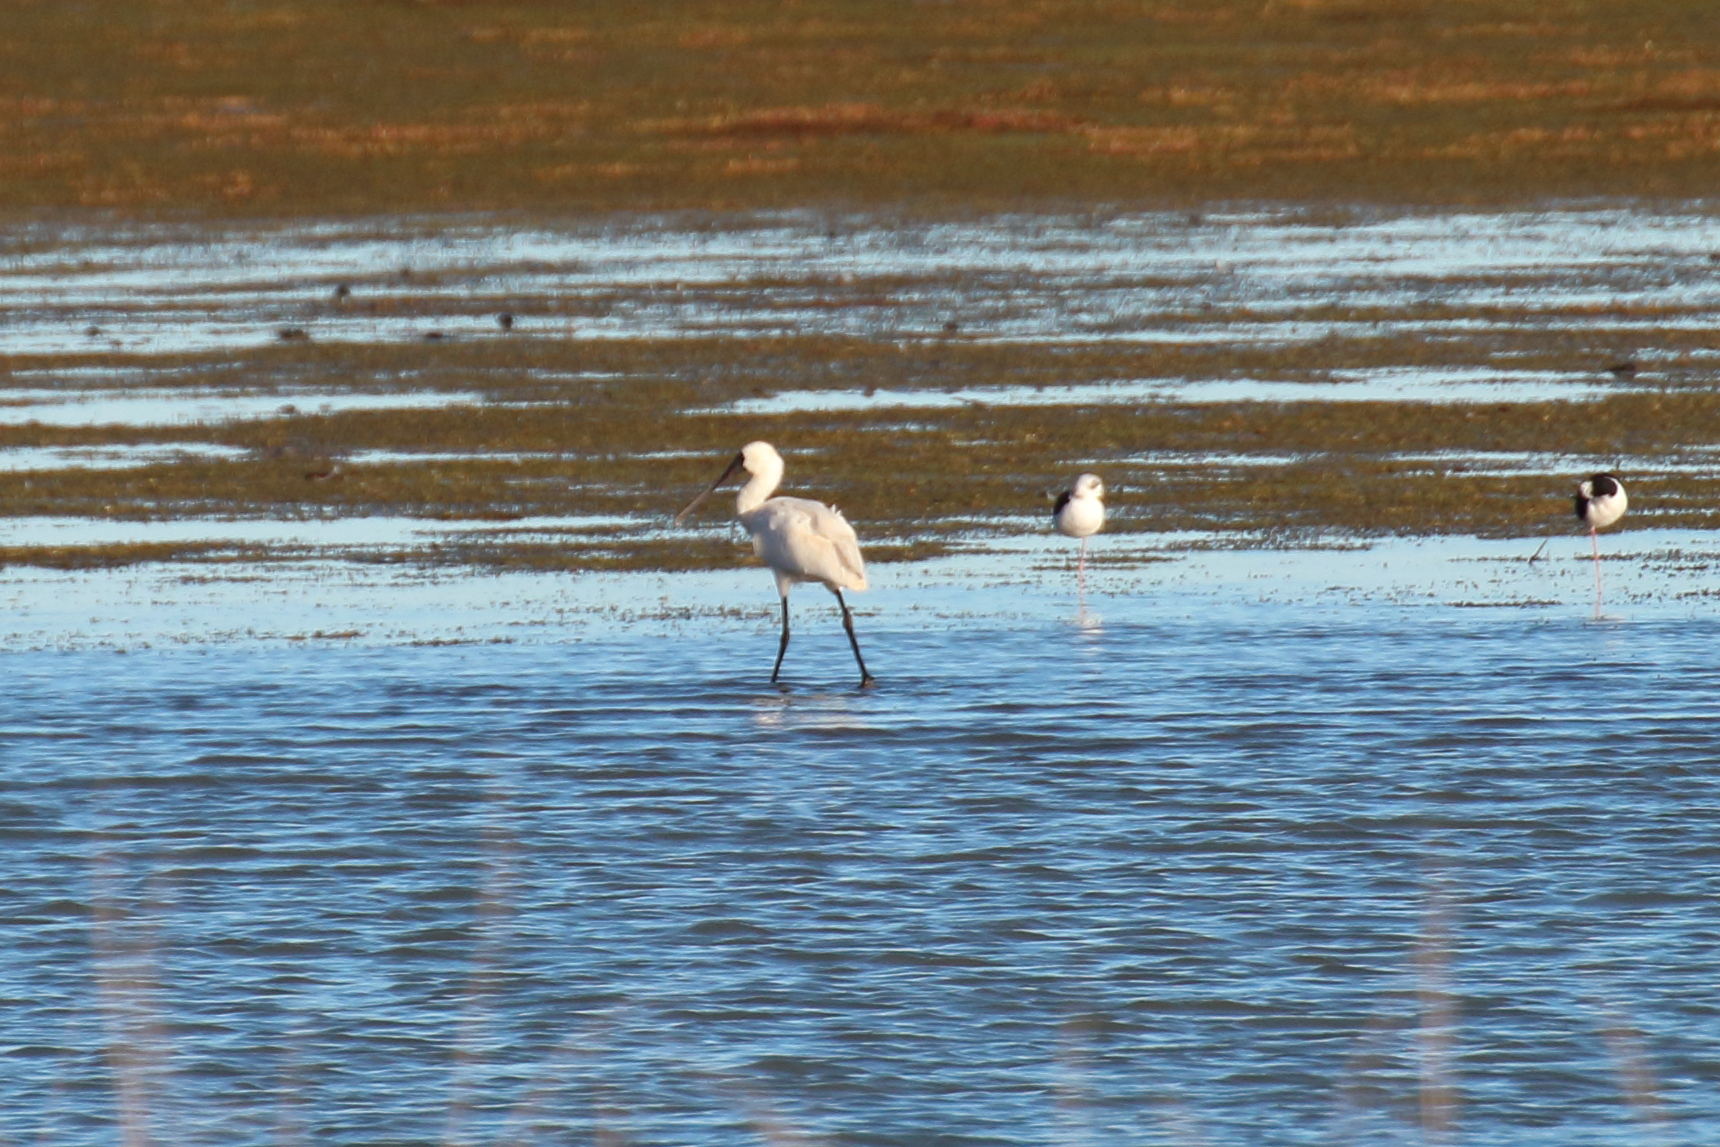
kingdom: Animalia
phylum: Chordata
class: Aves
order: Pelecaniformes
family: Threskiornithidae
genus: Platalea
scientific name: Platalea regia
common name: Royal spoonbill
